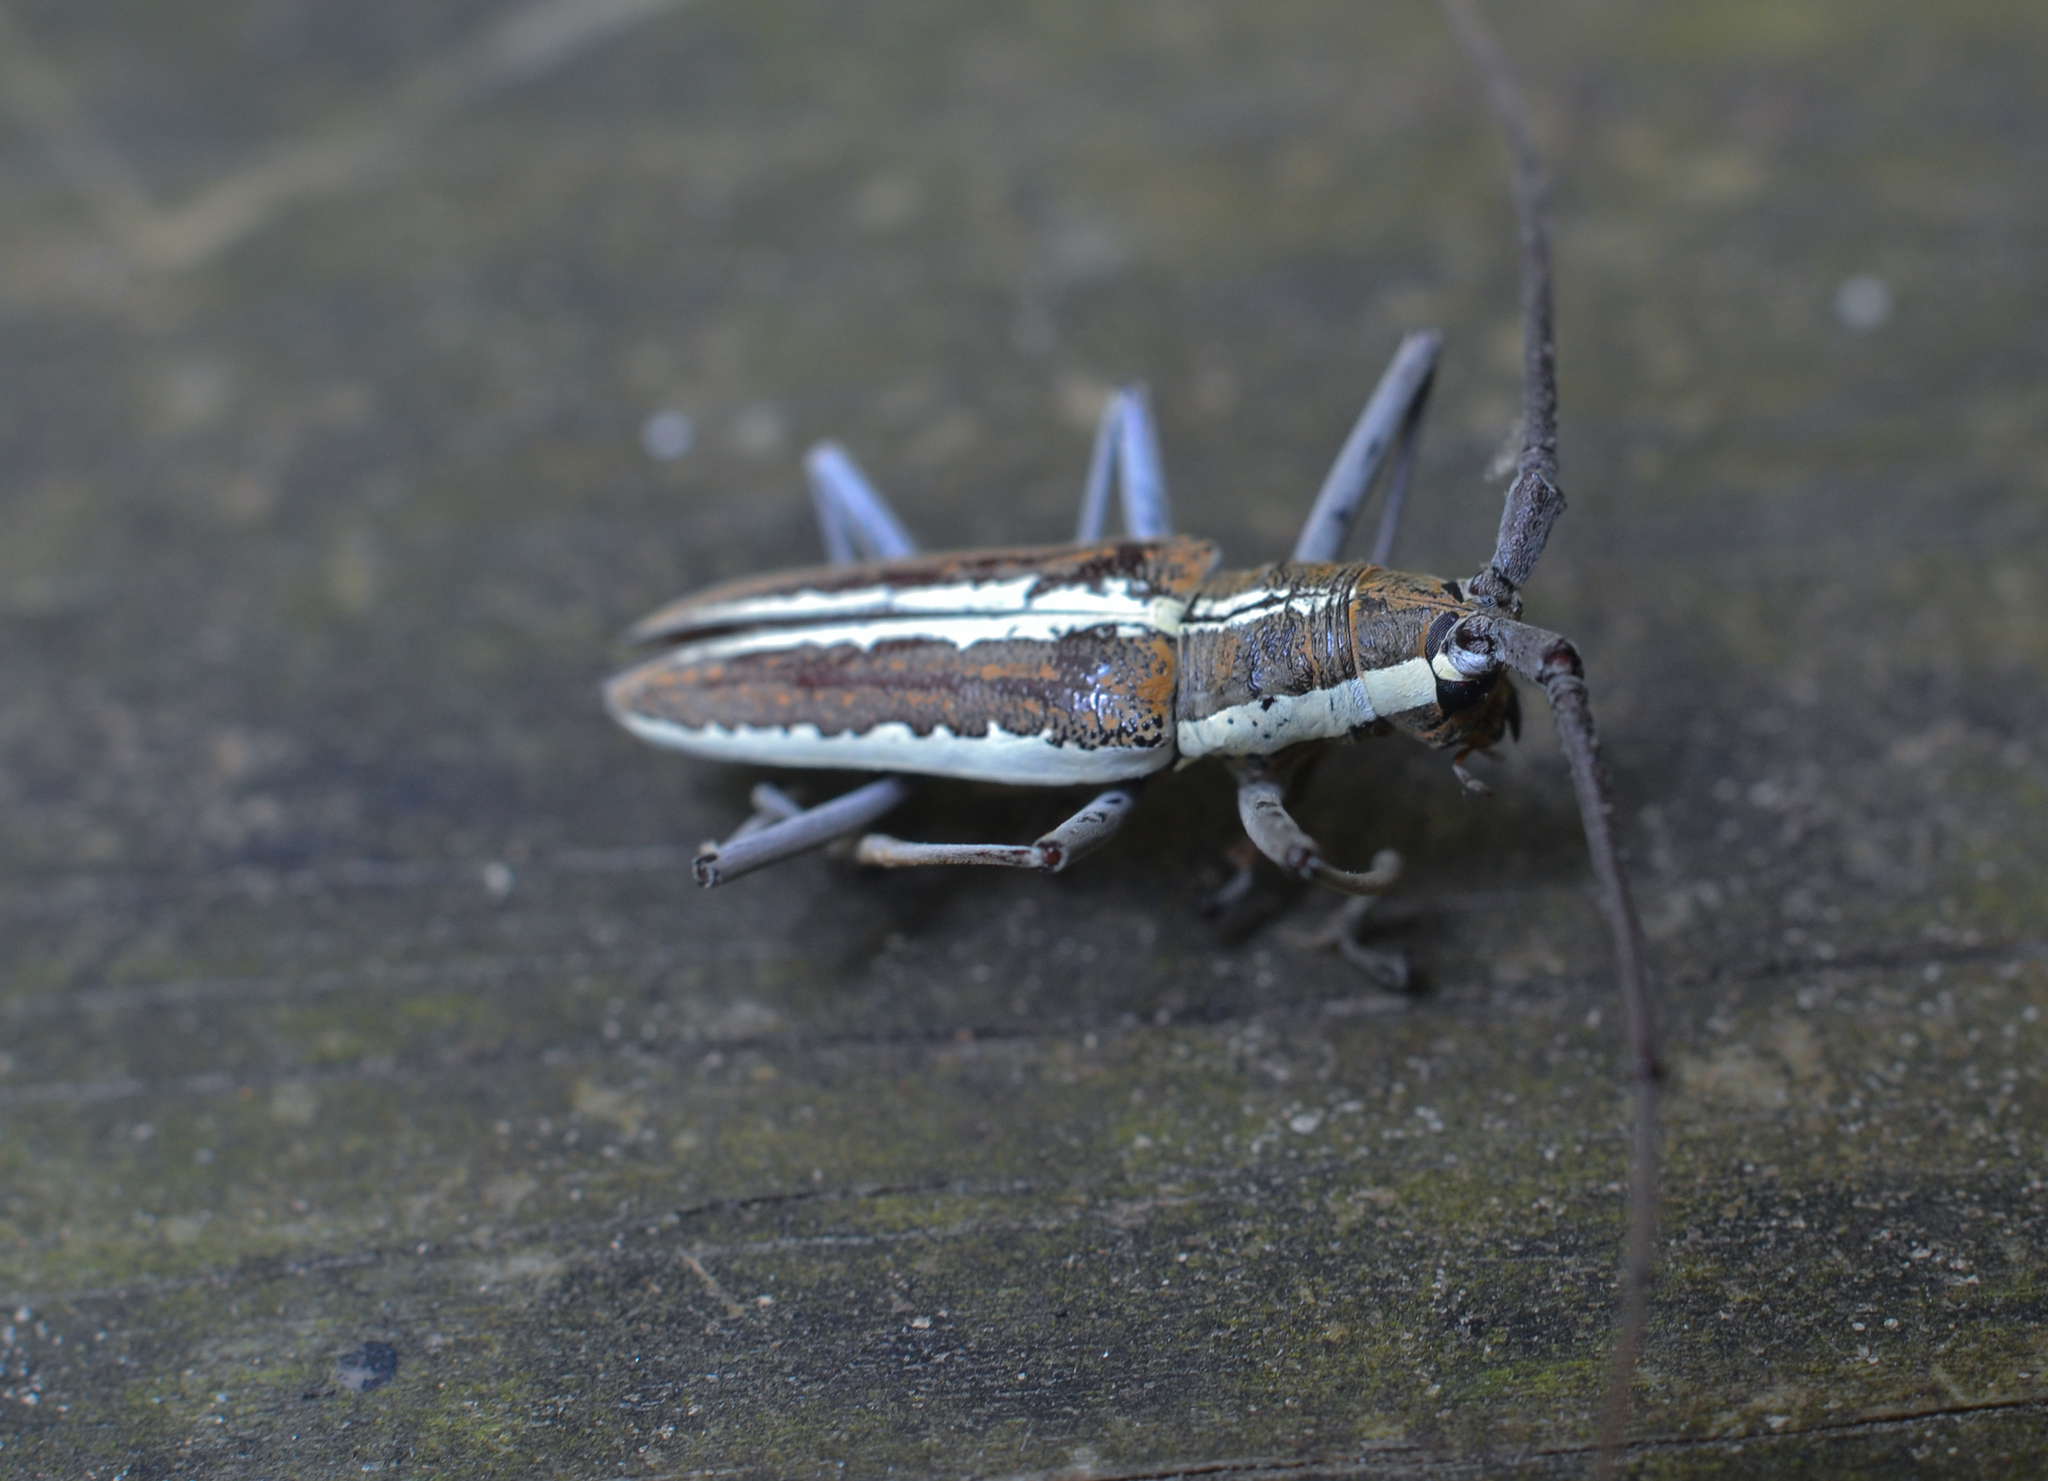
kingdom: Animalia
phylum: Arthropoda
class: Insecta
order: Coleoptera
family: Cerambycidae
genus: Neoptychodes
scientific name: Neoptychodes trilineatus
